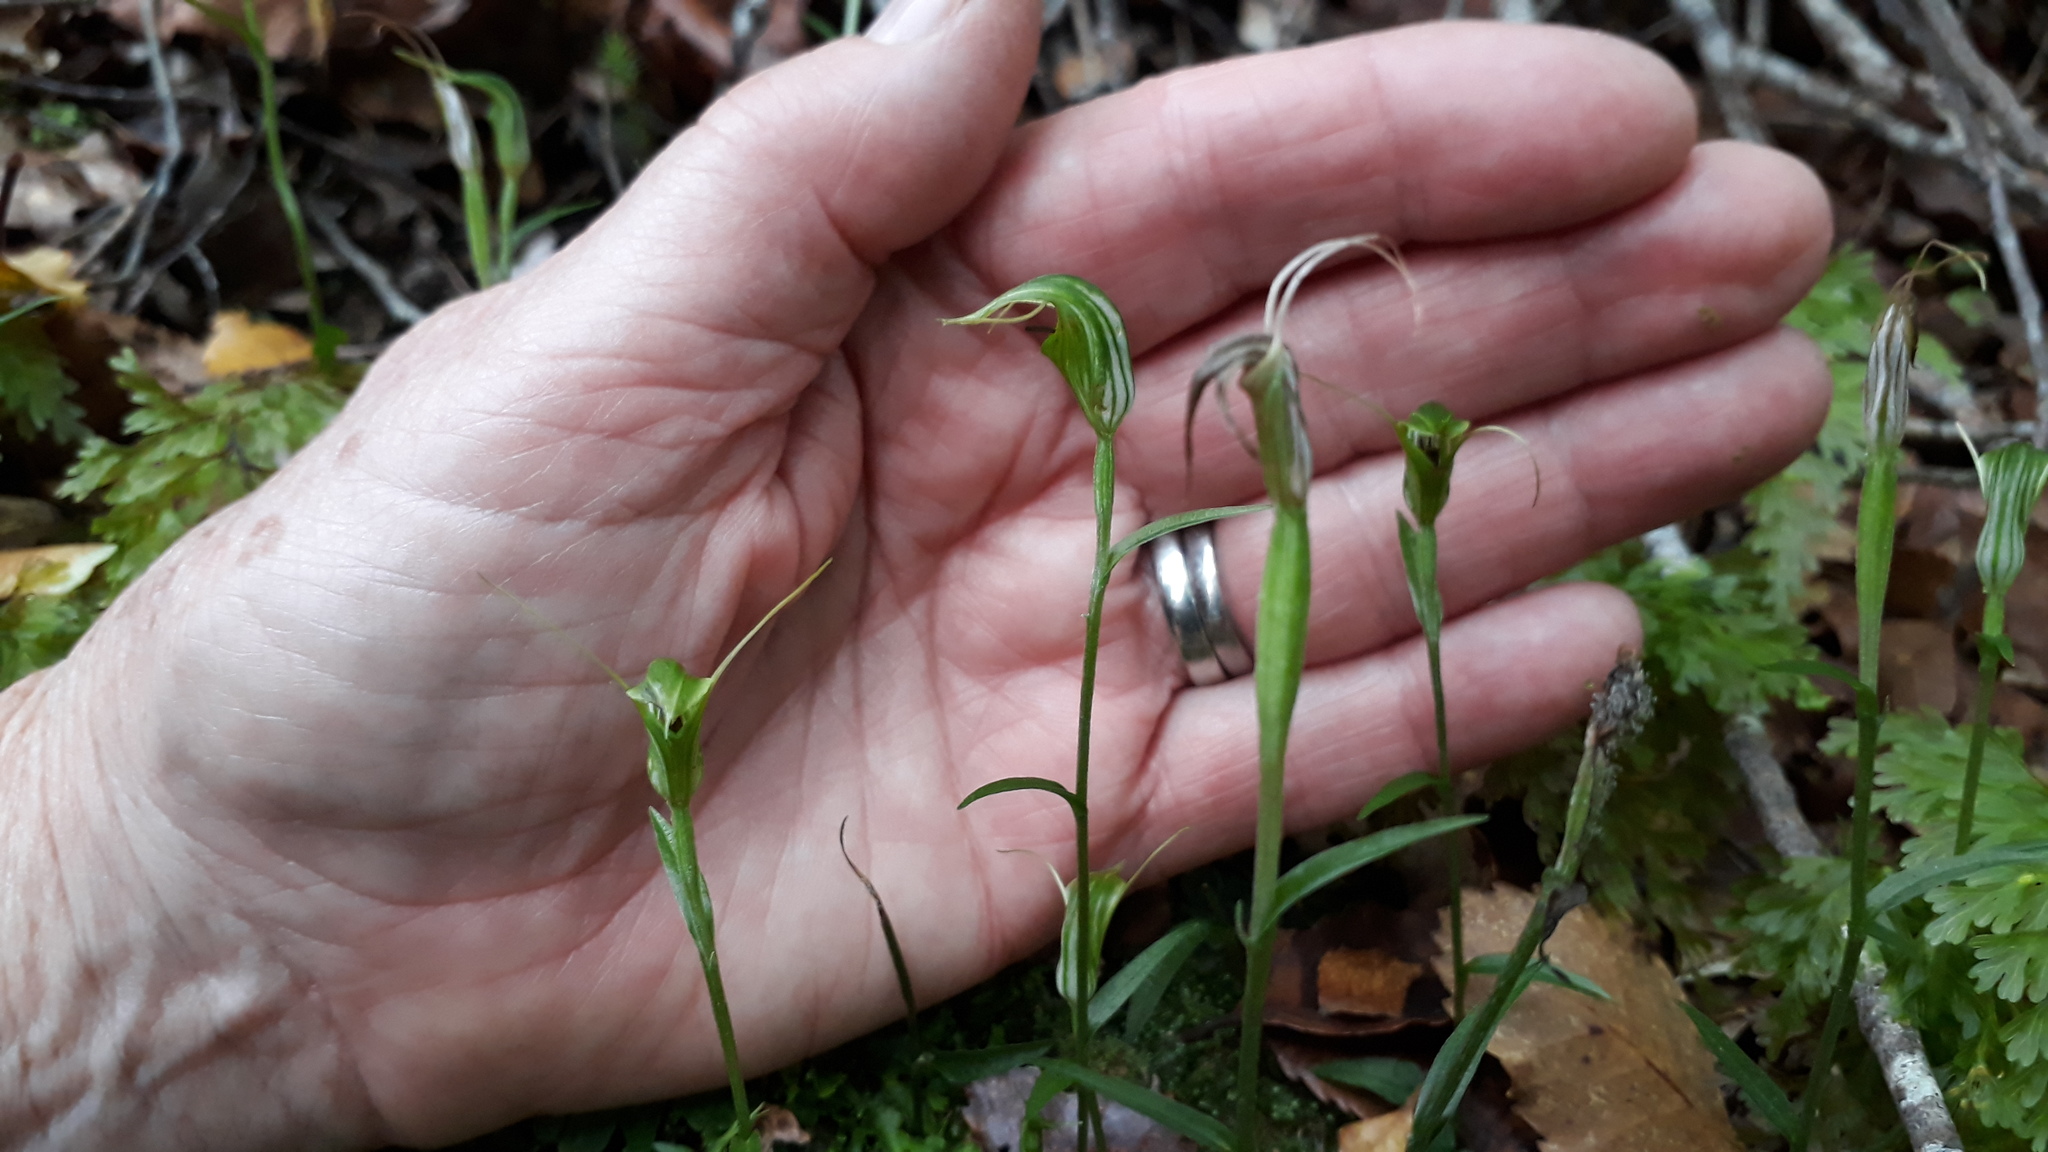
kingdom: Plantae
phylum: Tracheophyta
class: Liliopsida
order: Asparagales
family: Orchidaceae
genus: Pterostylis
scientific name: Pterostylis trullifolia
